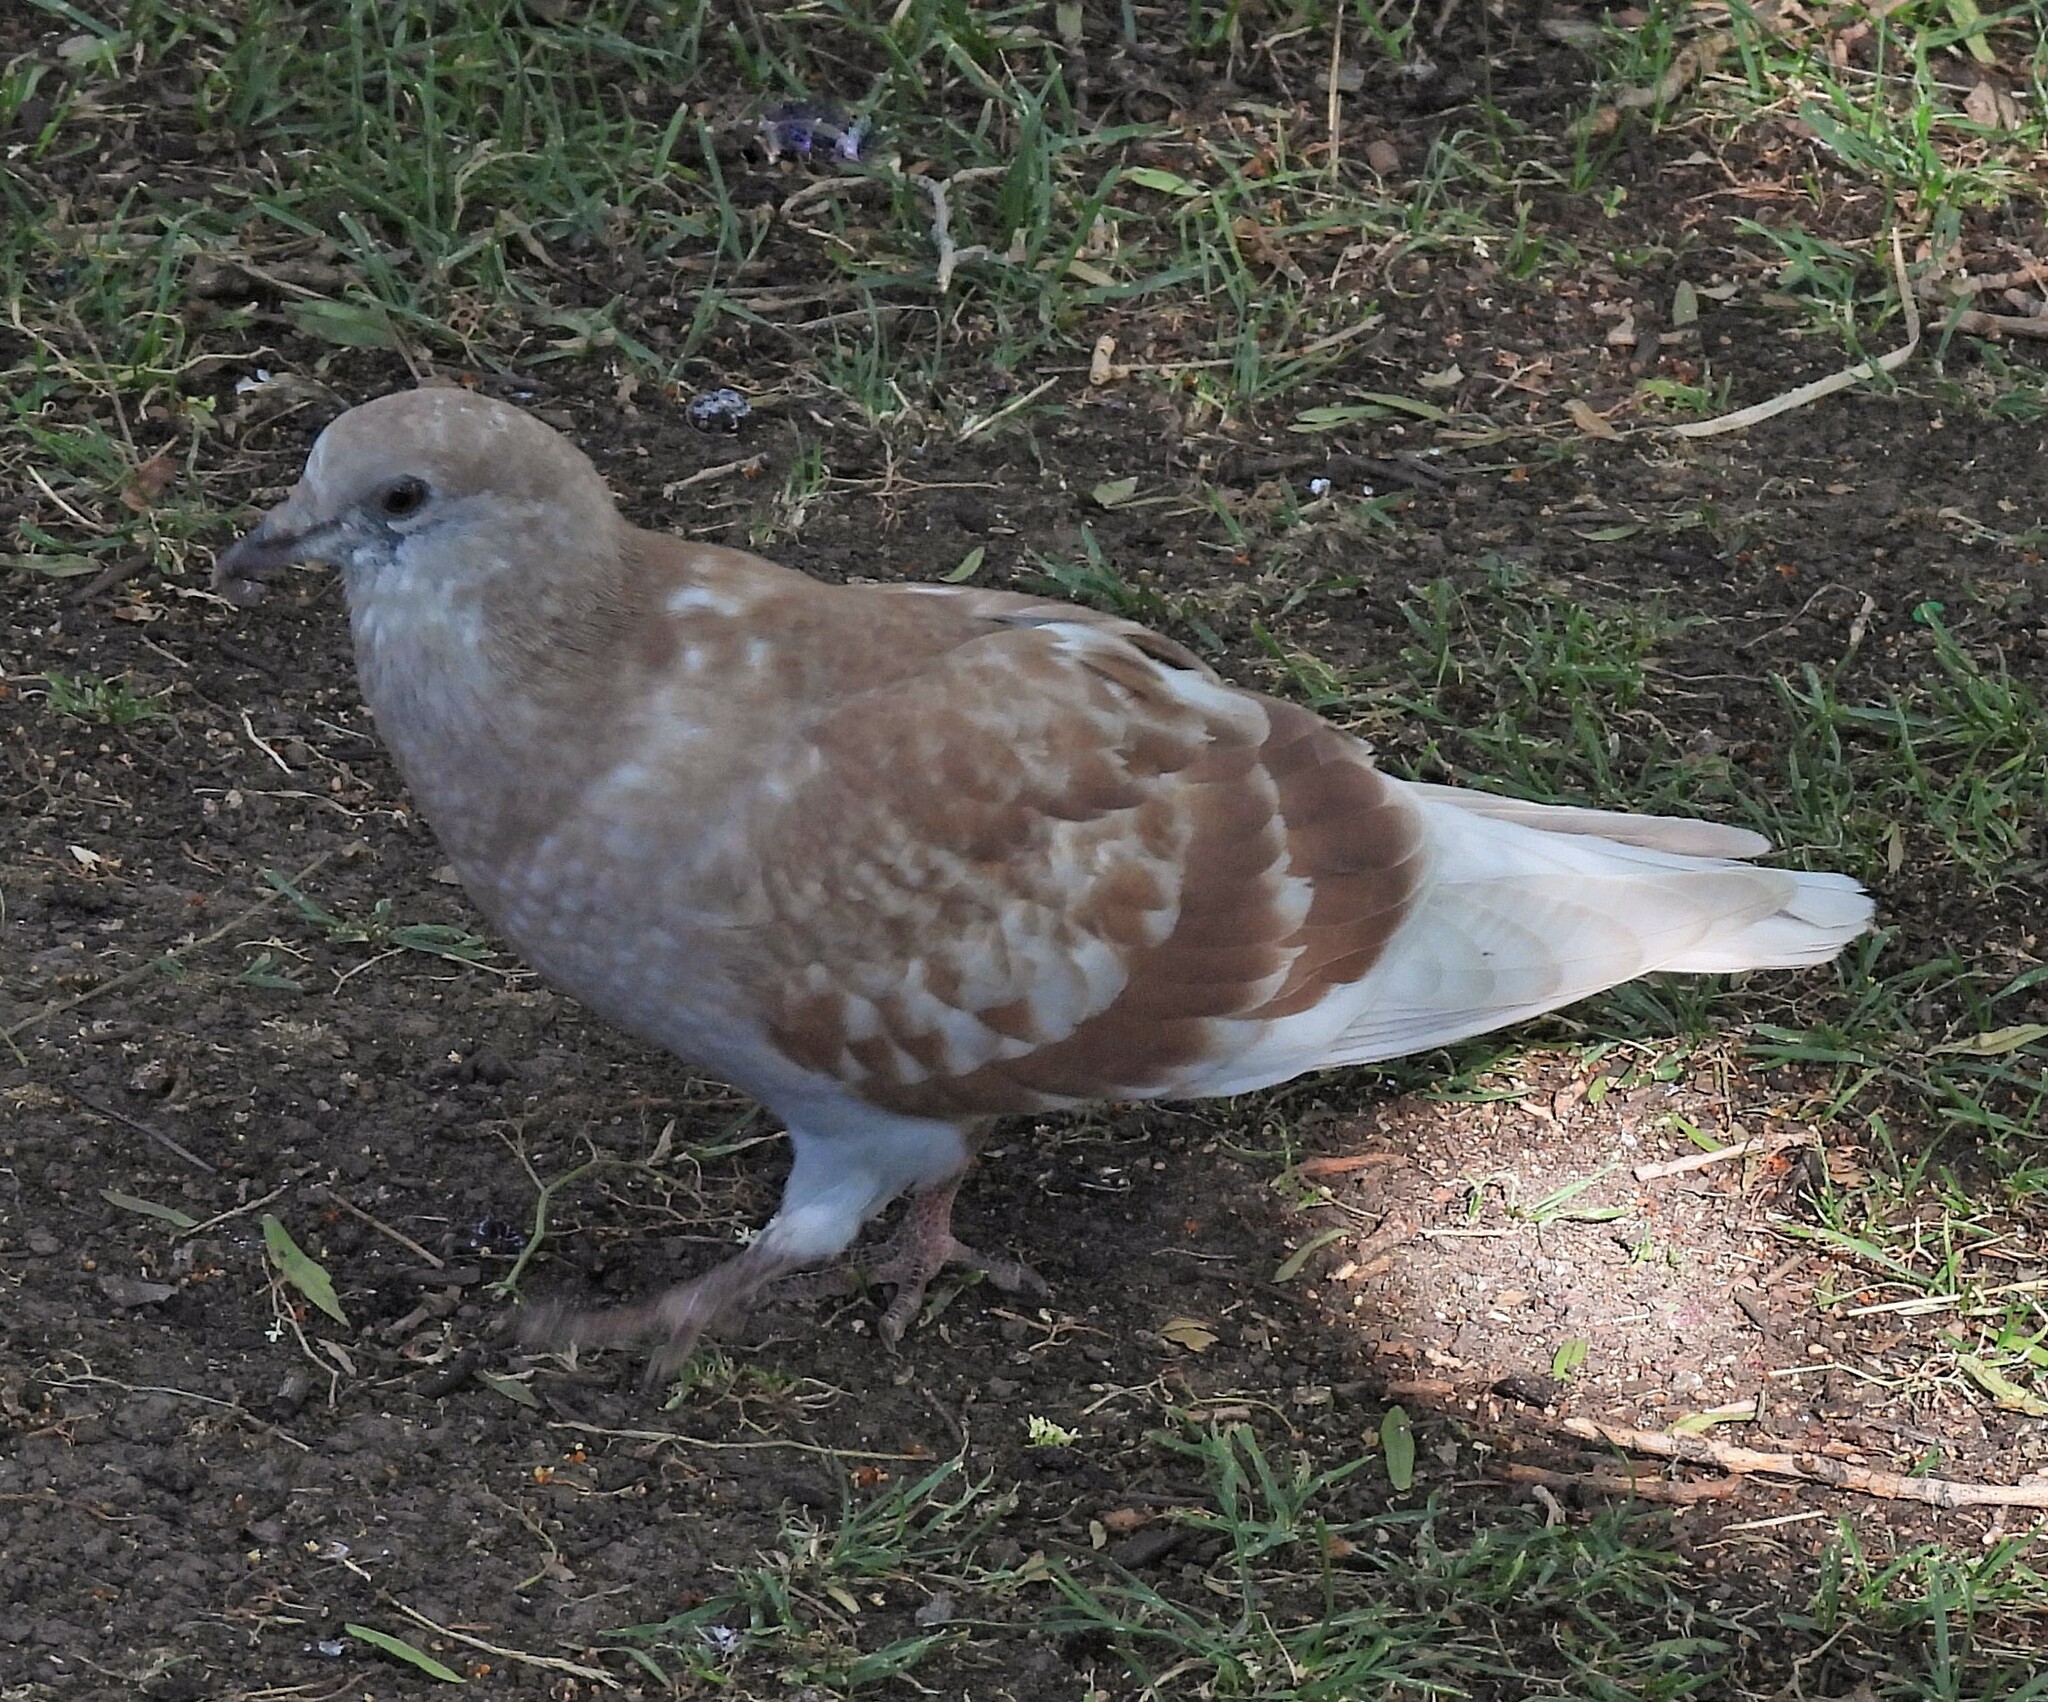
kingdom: Animalia
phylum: Chordata
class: Aves
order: Columbiformes
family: Columbidae
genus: Columba
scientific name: Columba livia
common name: Rock pigeon
